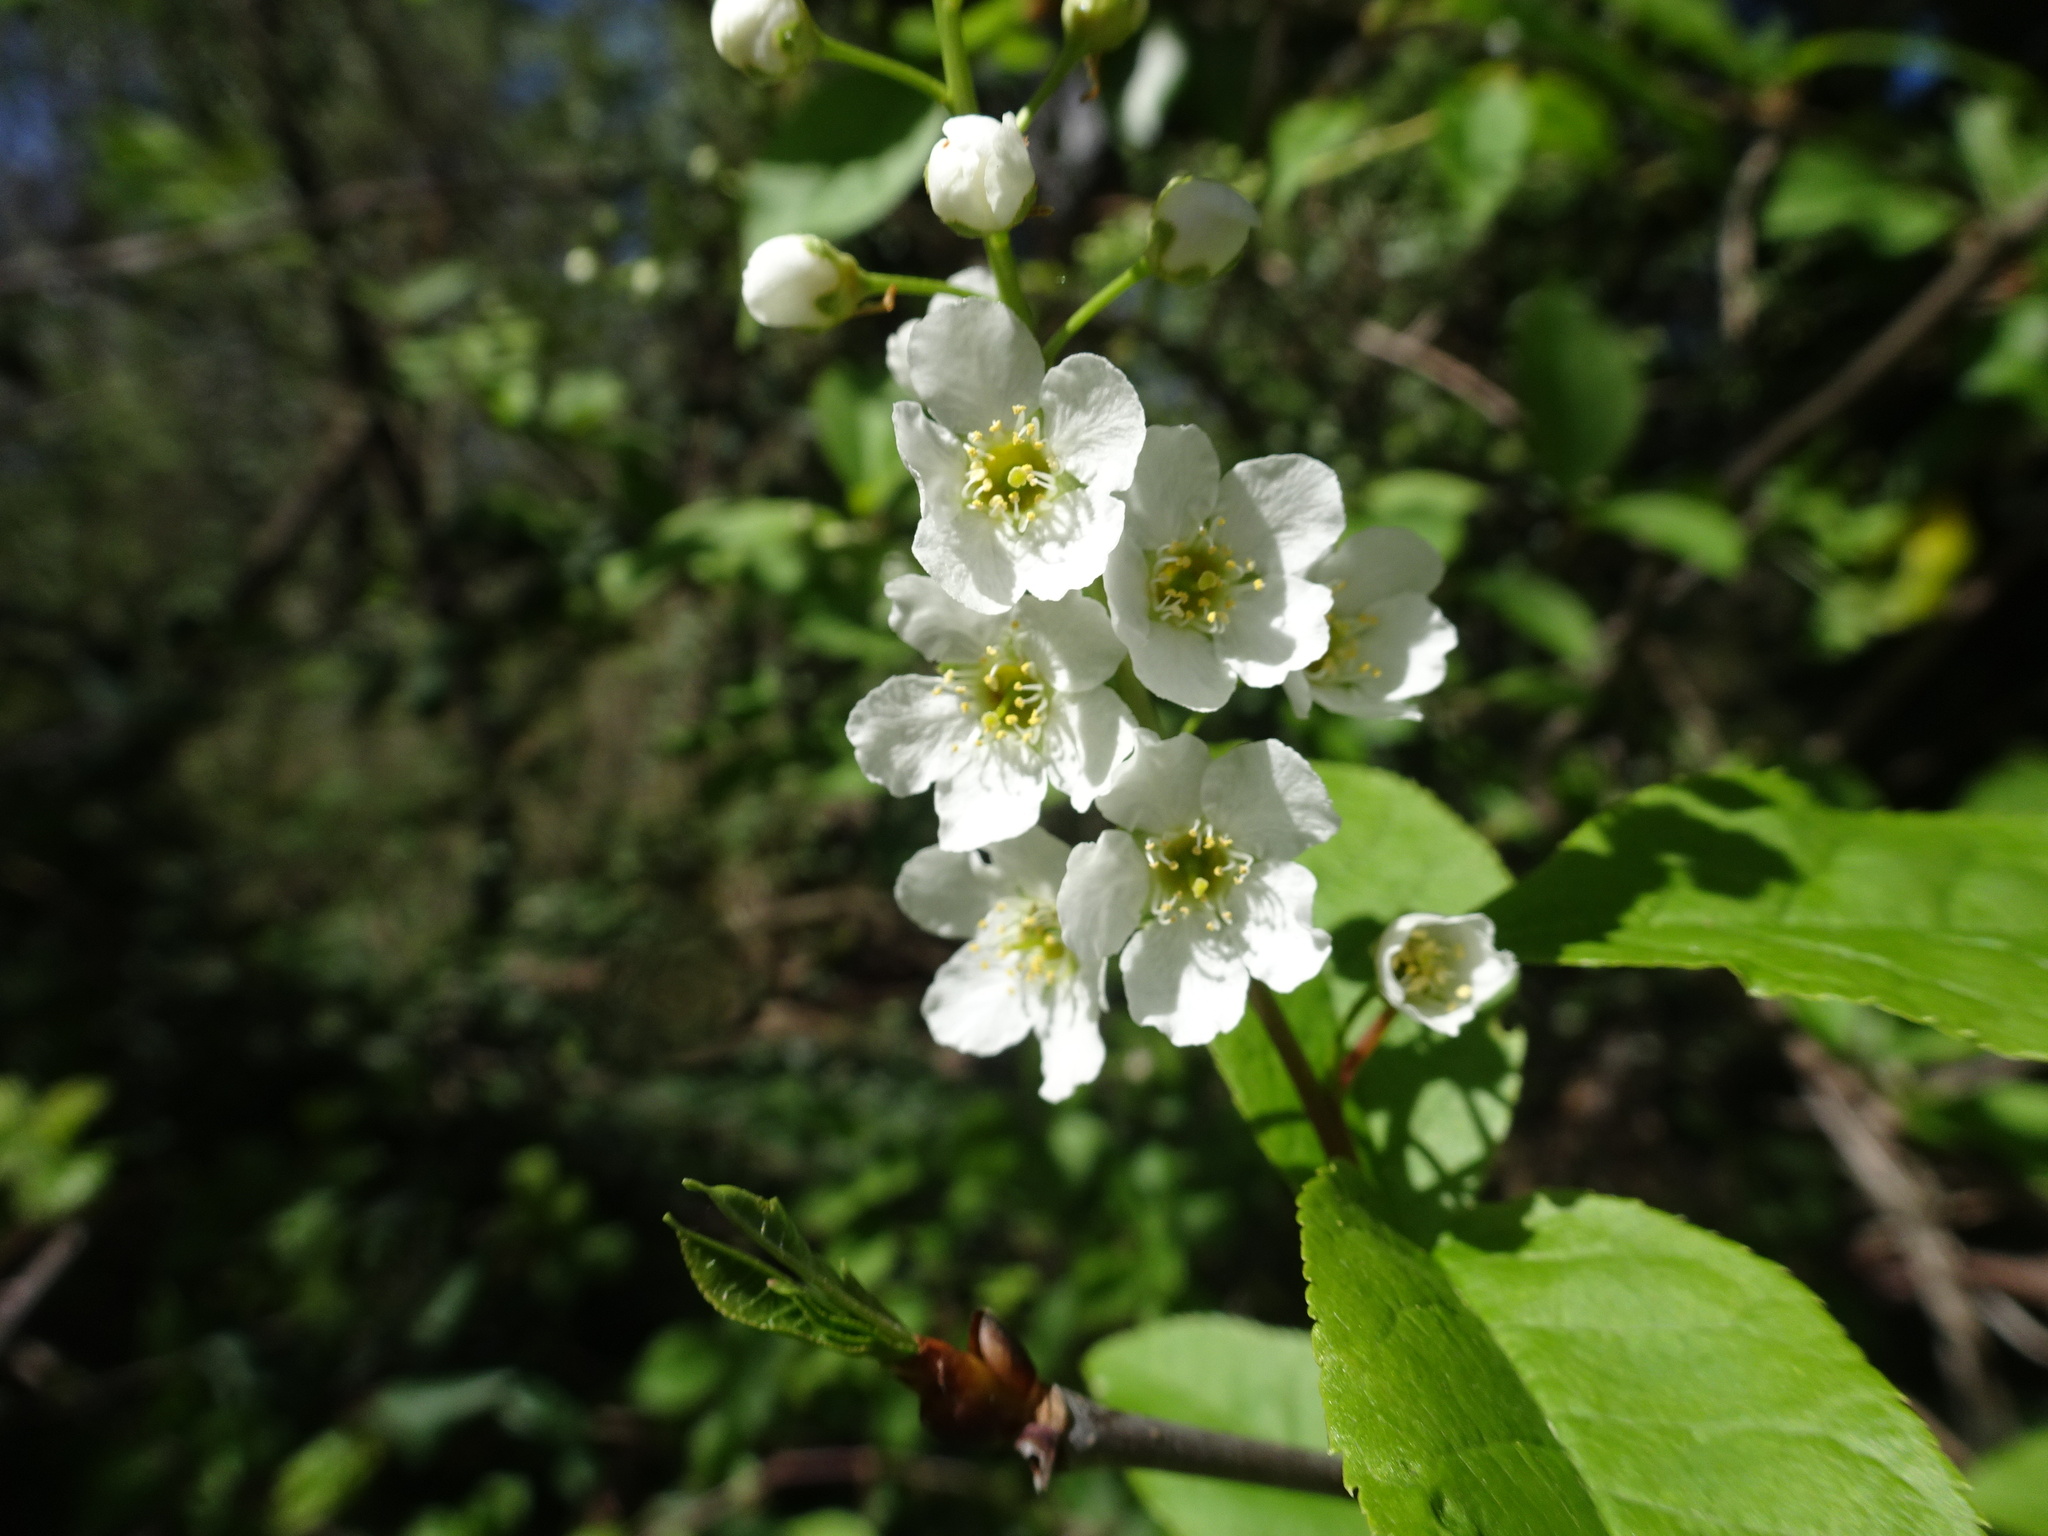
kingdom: Plantae
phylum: Tracheophyta
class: Magnoliopsida
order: Rosales
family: Rosaceae
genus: Prunus
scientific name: Prunus padus
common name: Bird cherry
